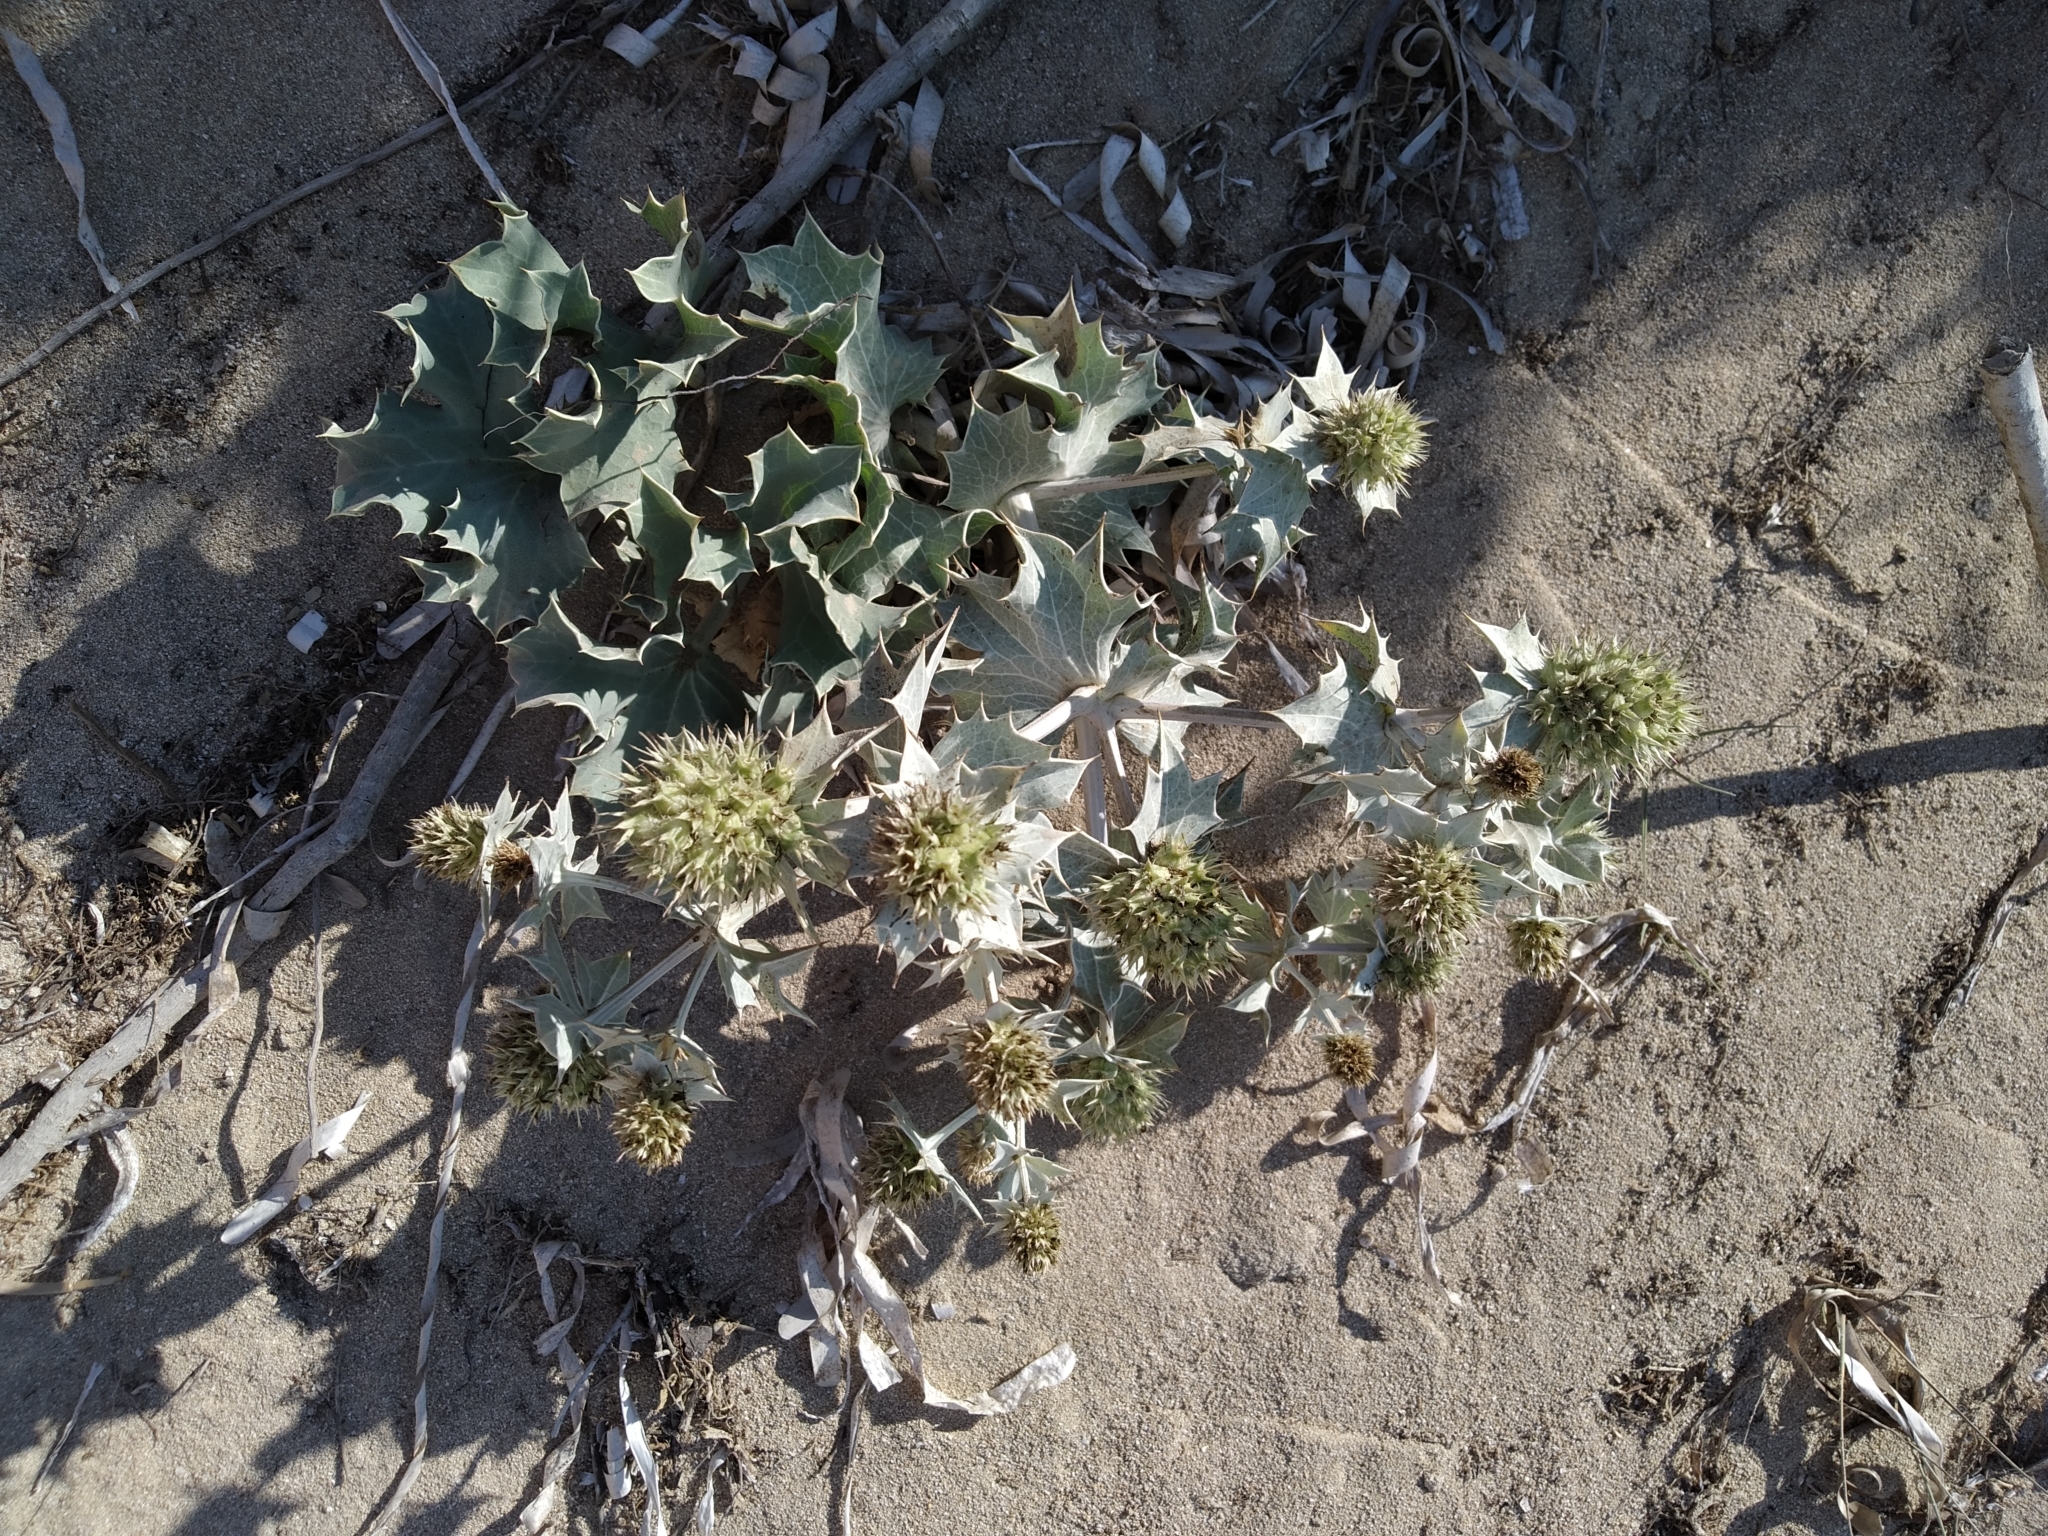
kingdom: Plantae
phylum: Tracheophyta
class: Magnoliopsida
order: Apiales
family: Apiaceae
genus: Eryngium
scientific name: Eryngium maritimum
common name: Sea-holly
